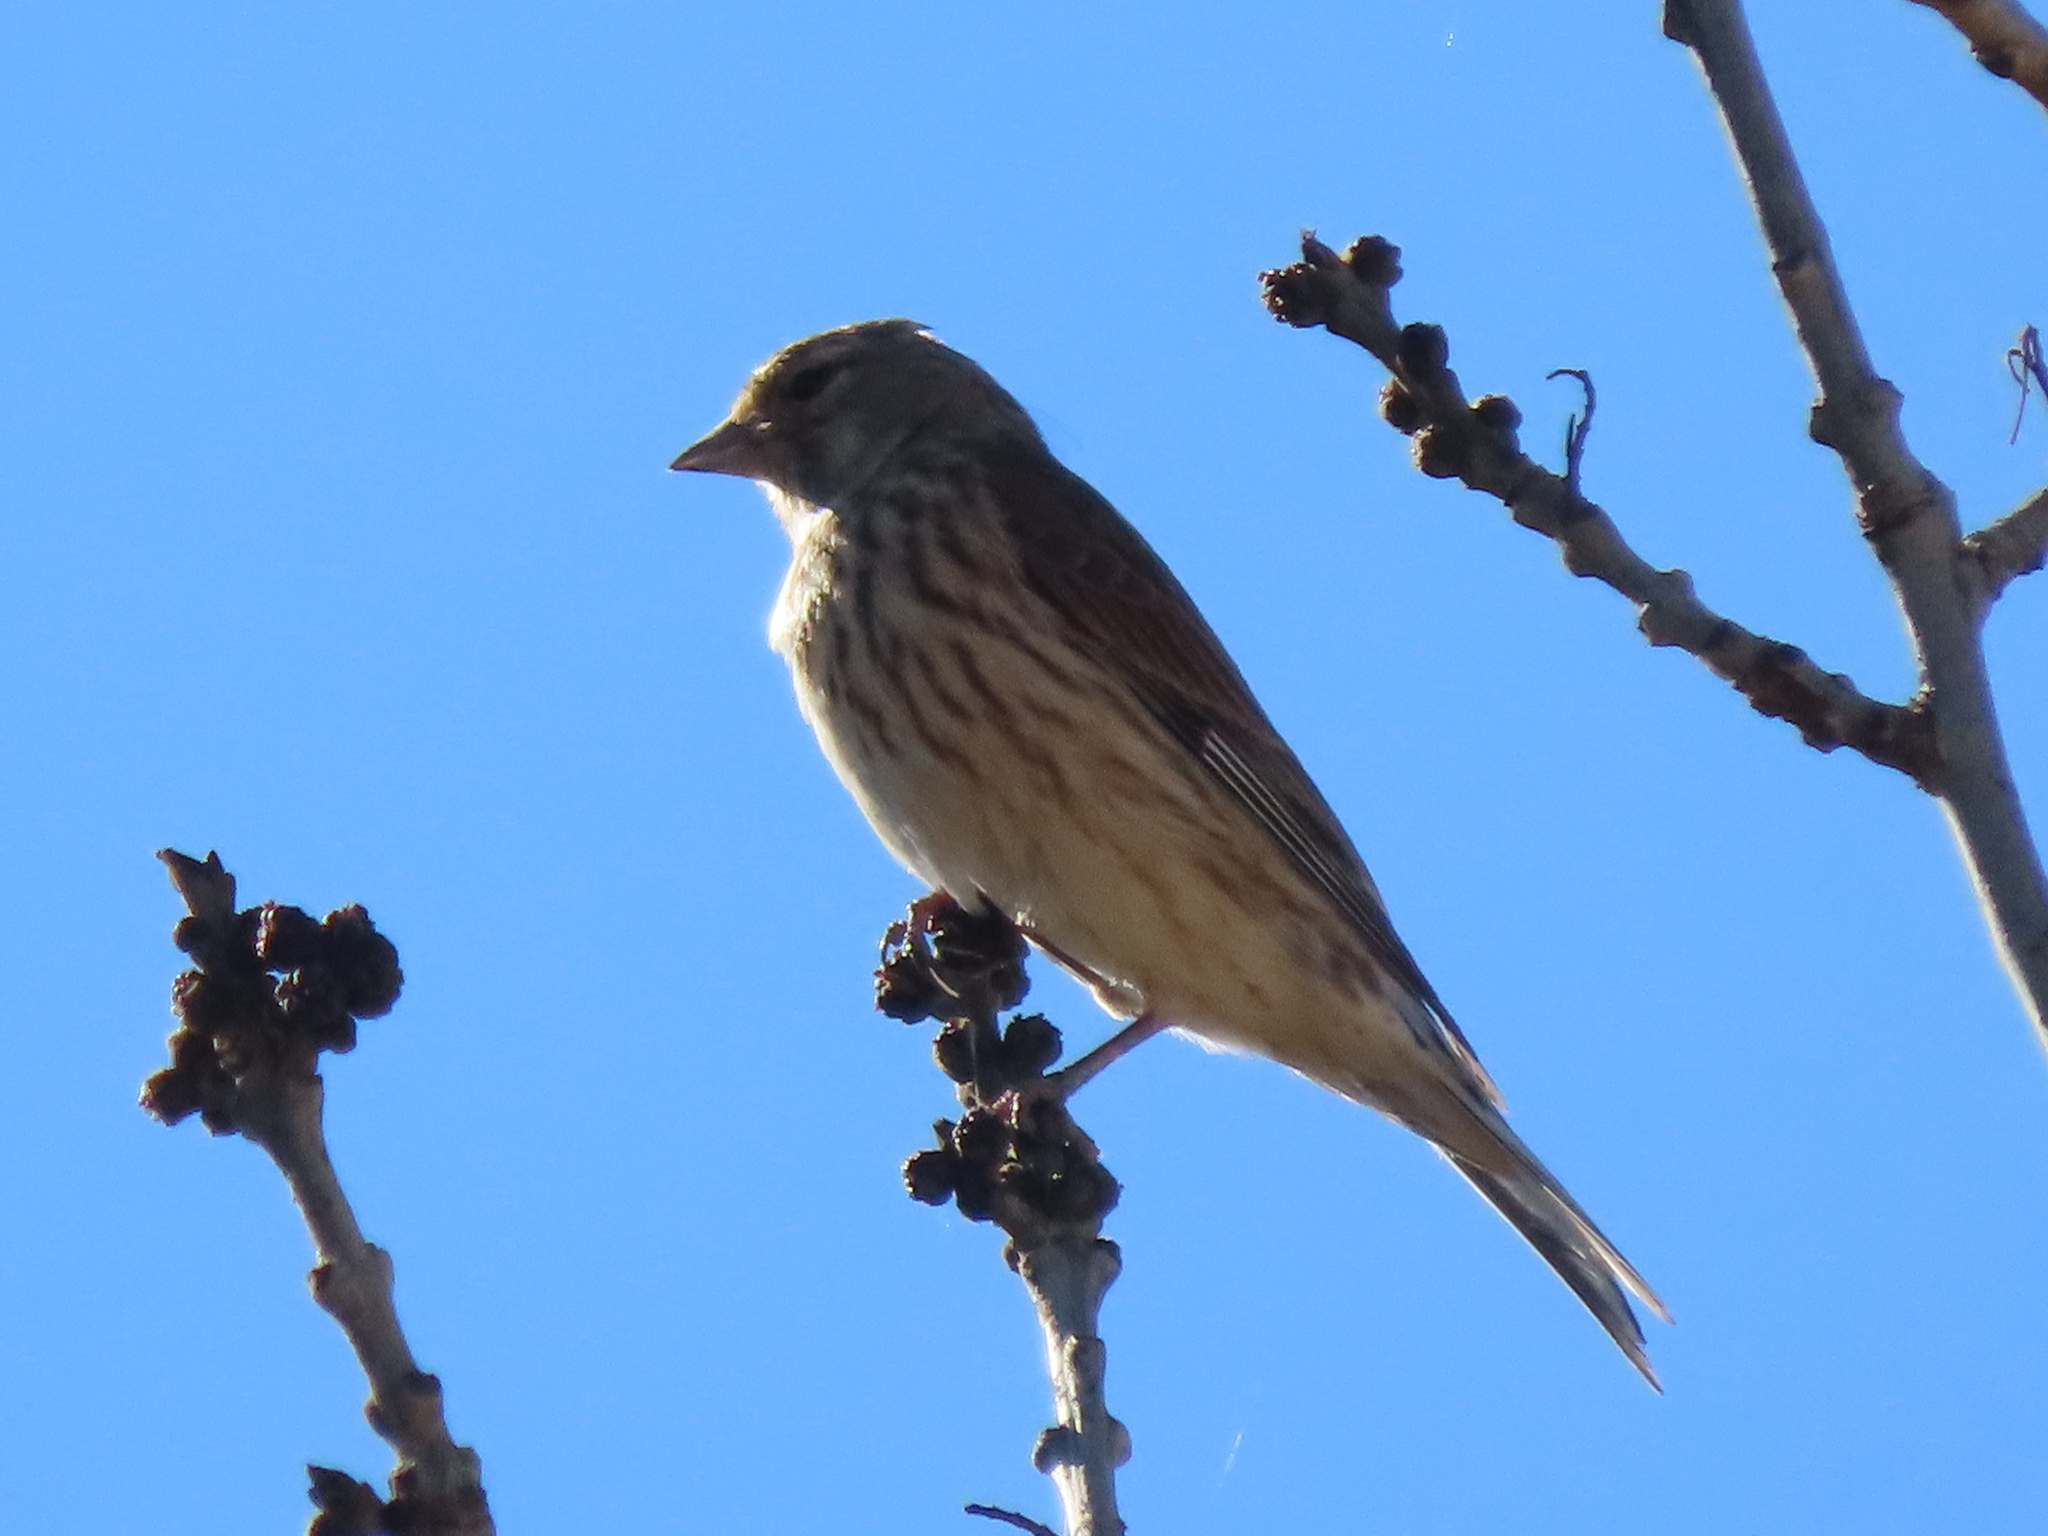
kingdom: Animalia
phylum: Chordata
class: Aves
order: Passeriformes
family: Fringillidae
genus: Linaria
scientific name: Linaria cannabina
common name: Common linnet
